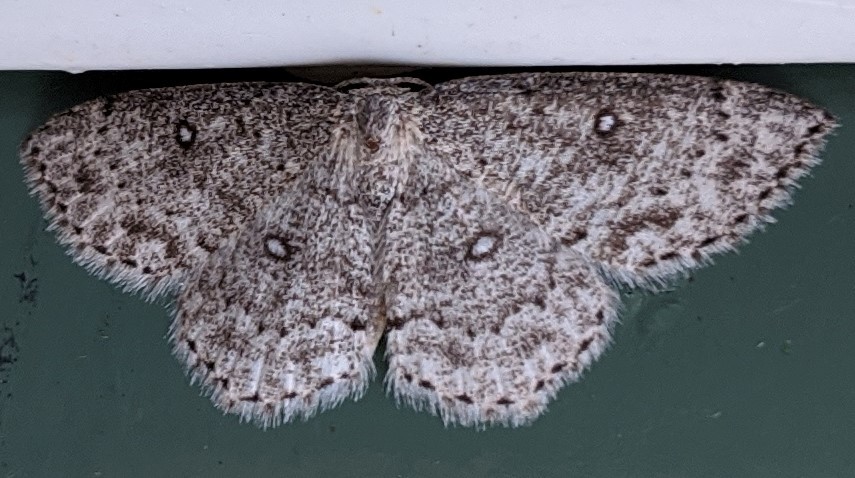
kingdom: Animalia
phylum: Arthropoda
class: Insecta
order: Lepidoptera
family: Geometridae
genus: Cyclophora
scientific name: Cyclophora pendulinaria
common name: Sweet fern geometer
